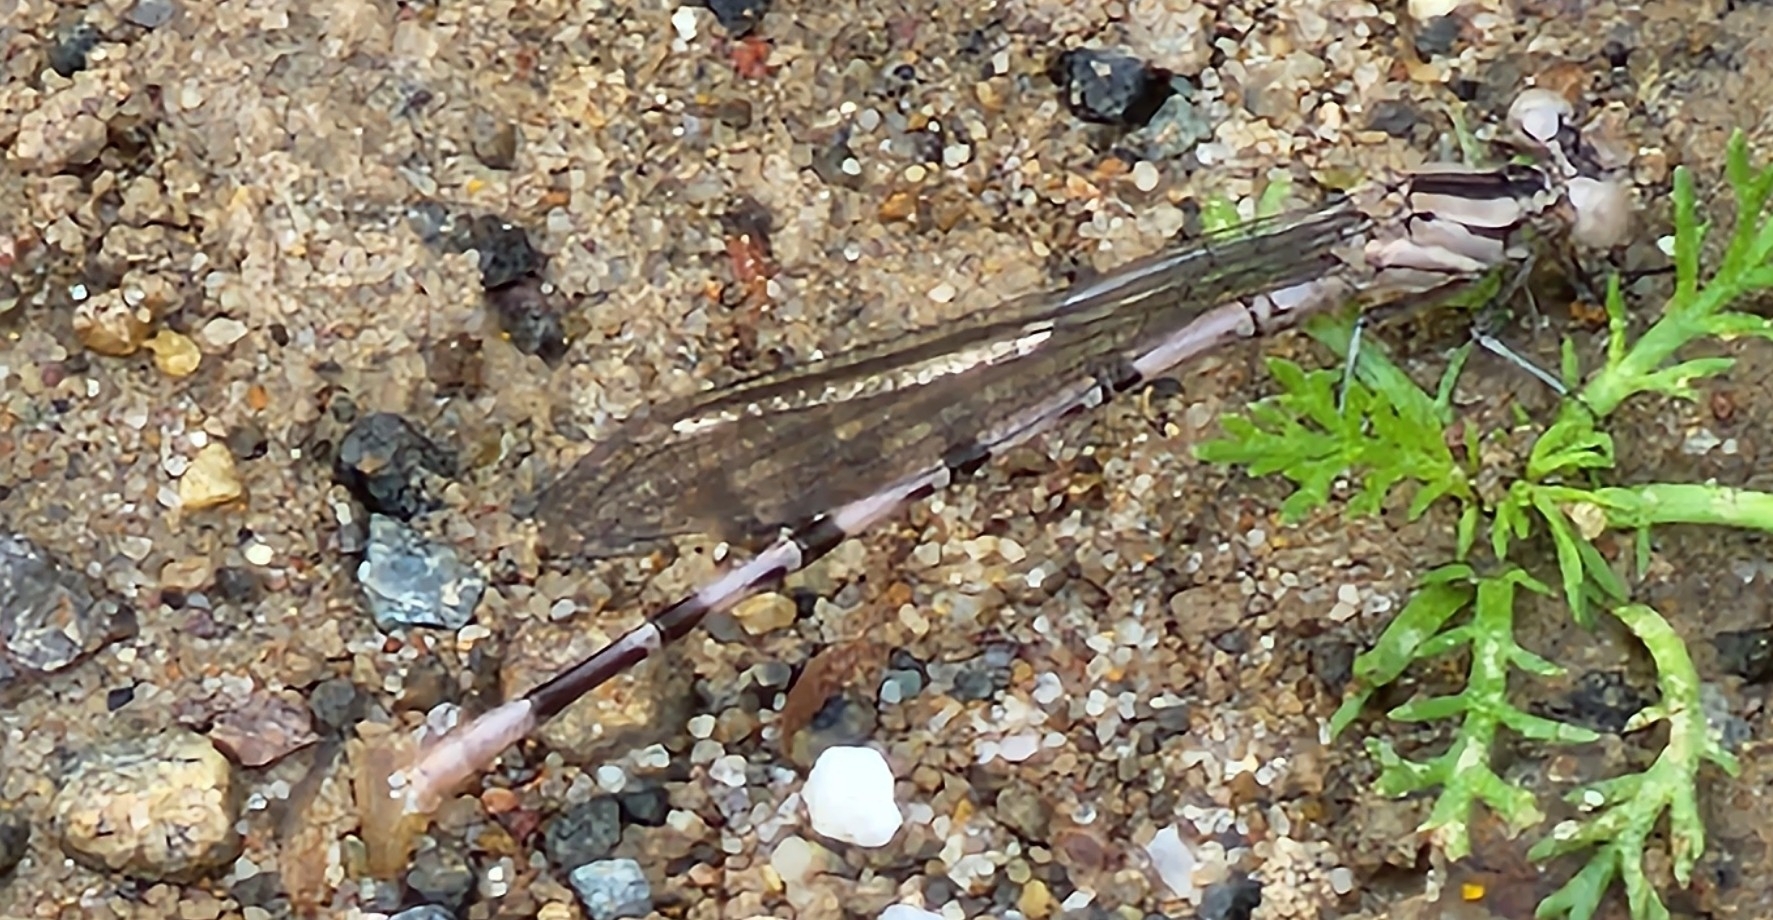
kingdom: Animalia
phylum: Arthropoda
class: Insecta
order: Odonata
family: Coenagrionidae
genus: Argia
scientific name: Argia vivida
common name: Vivid dancer
